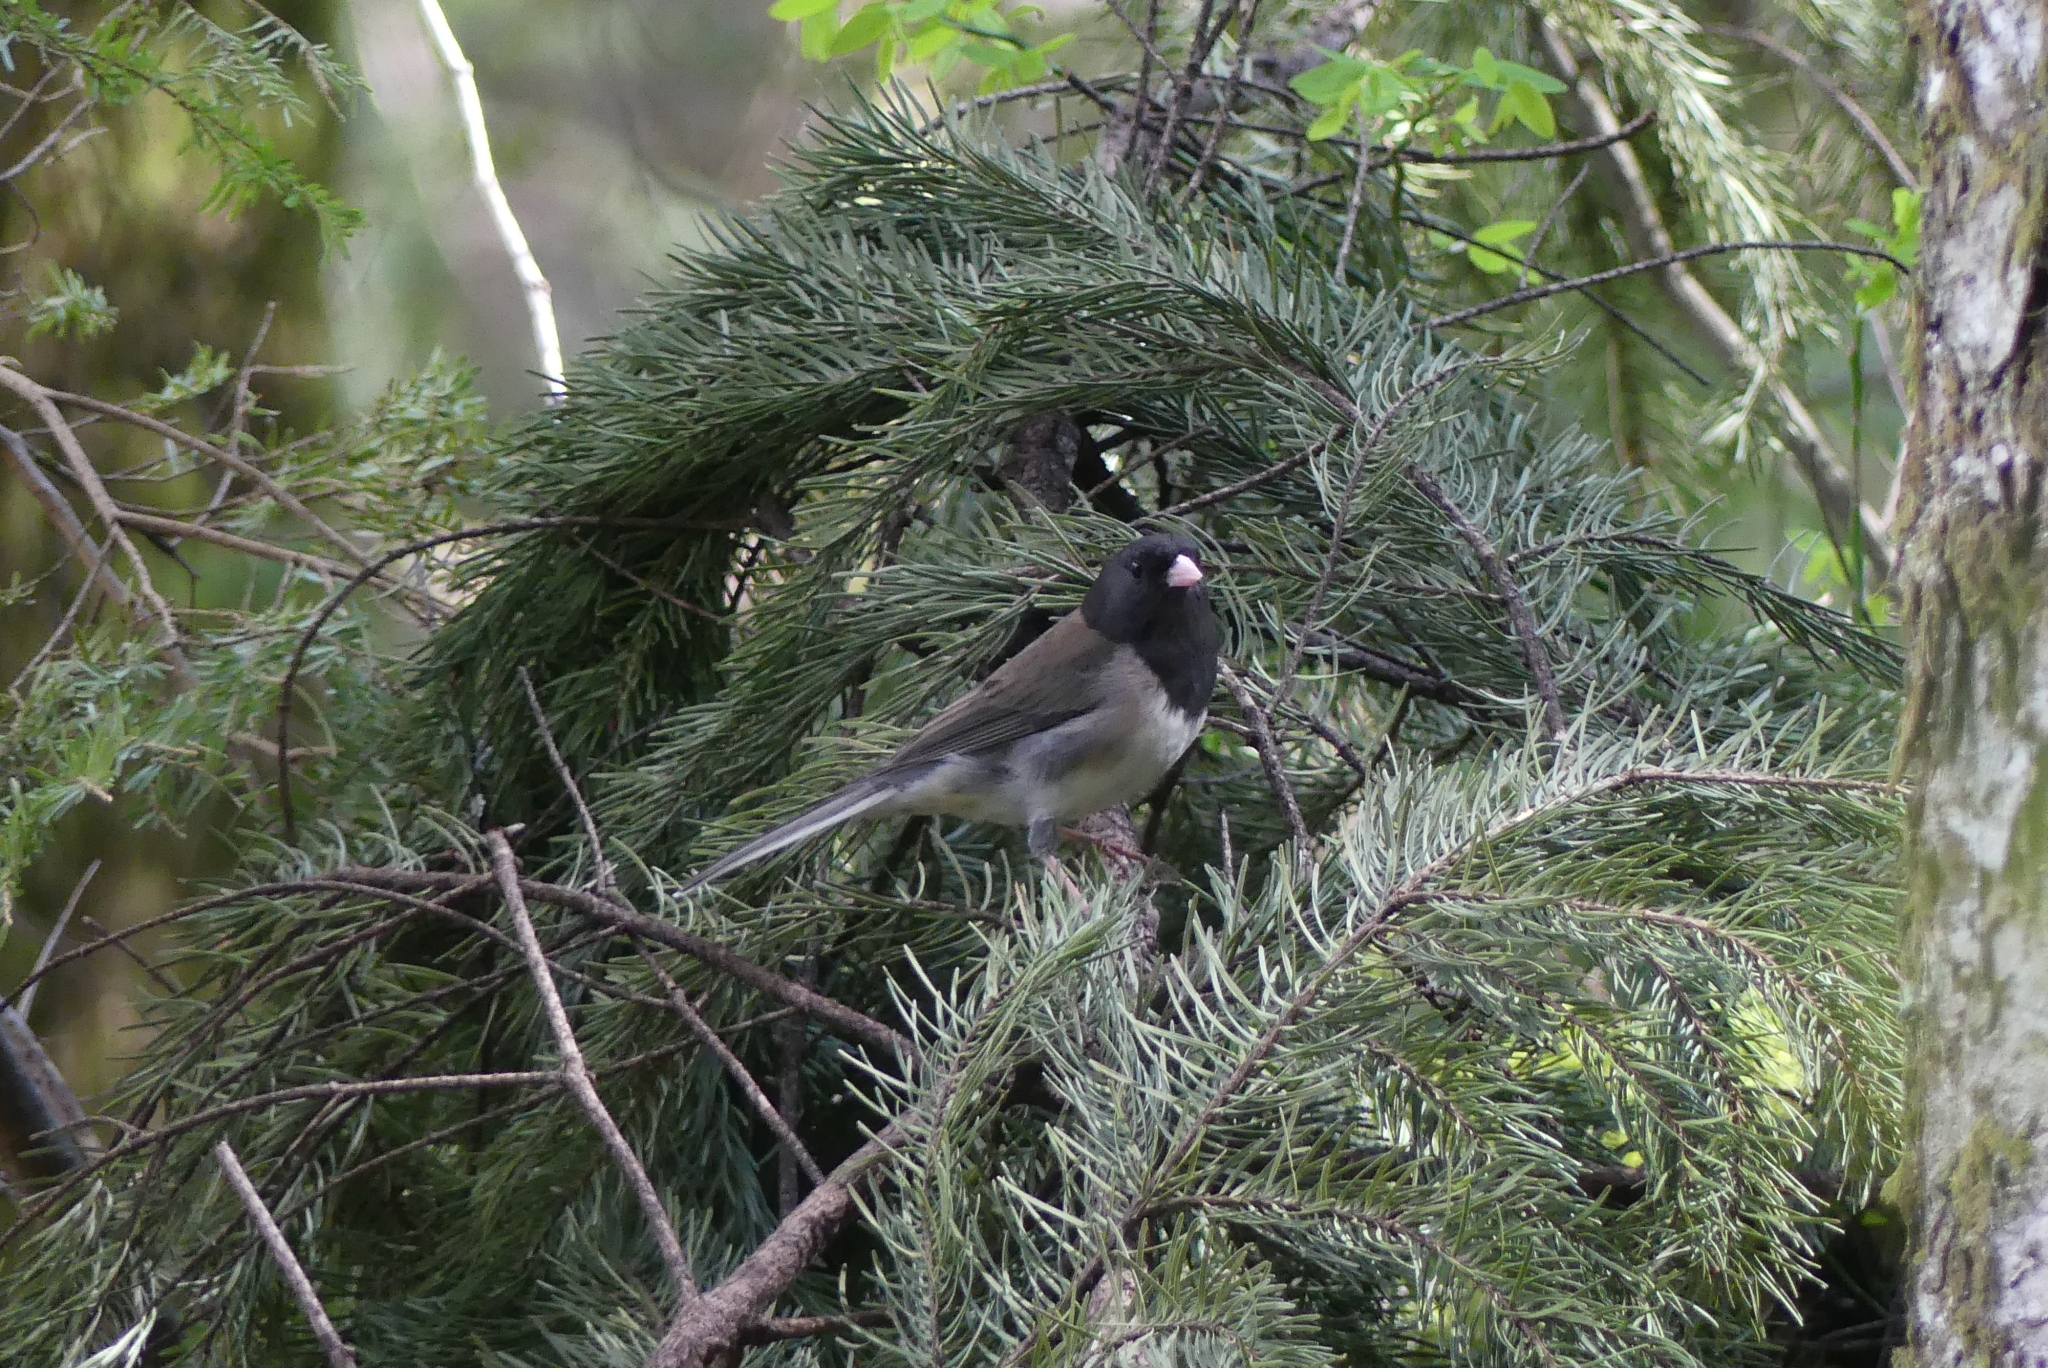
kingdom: Animalia
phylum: Chordata
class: Aves
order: Passeriformes
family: Passerellidae
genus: Junco
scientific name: Junco hyemalis
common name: Dark-eyed junco
